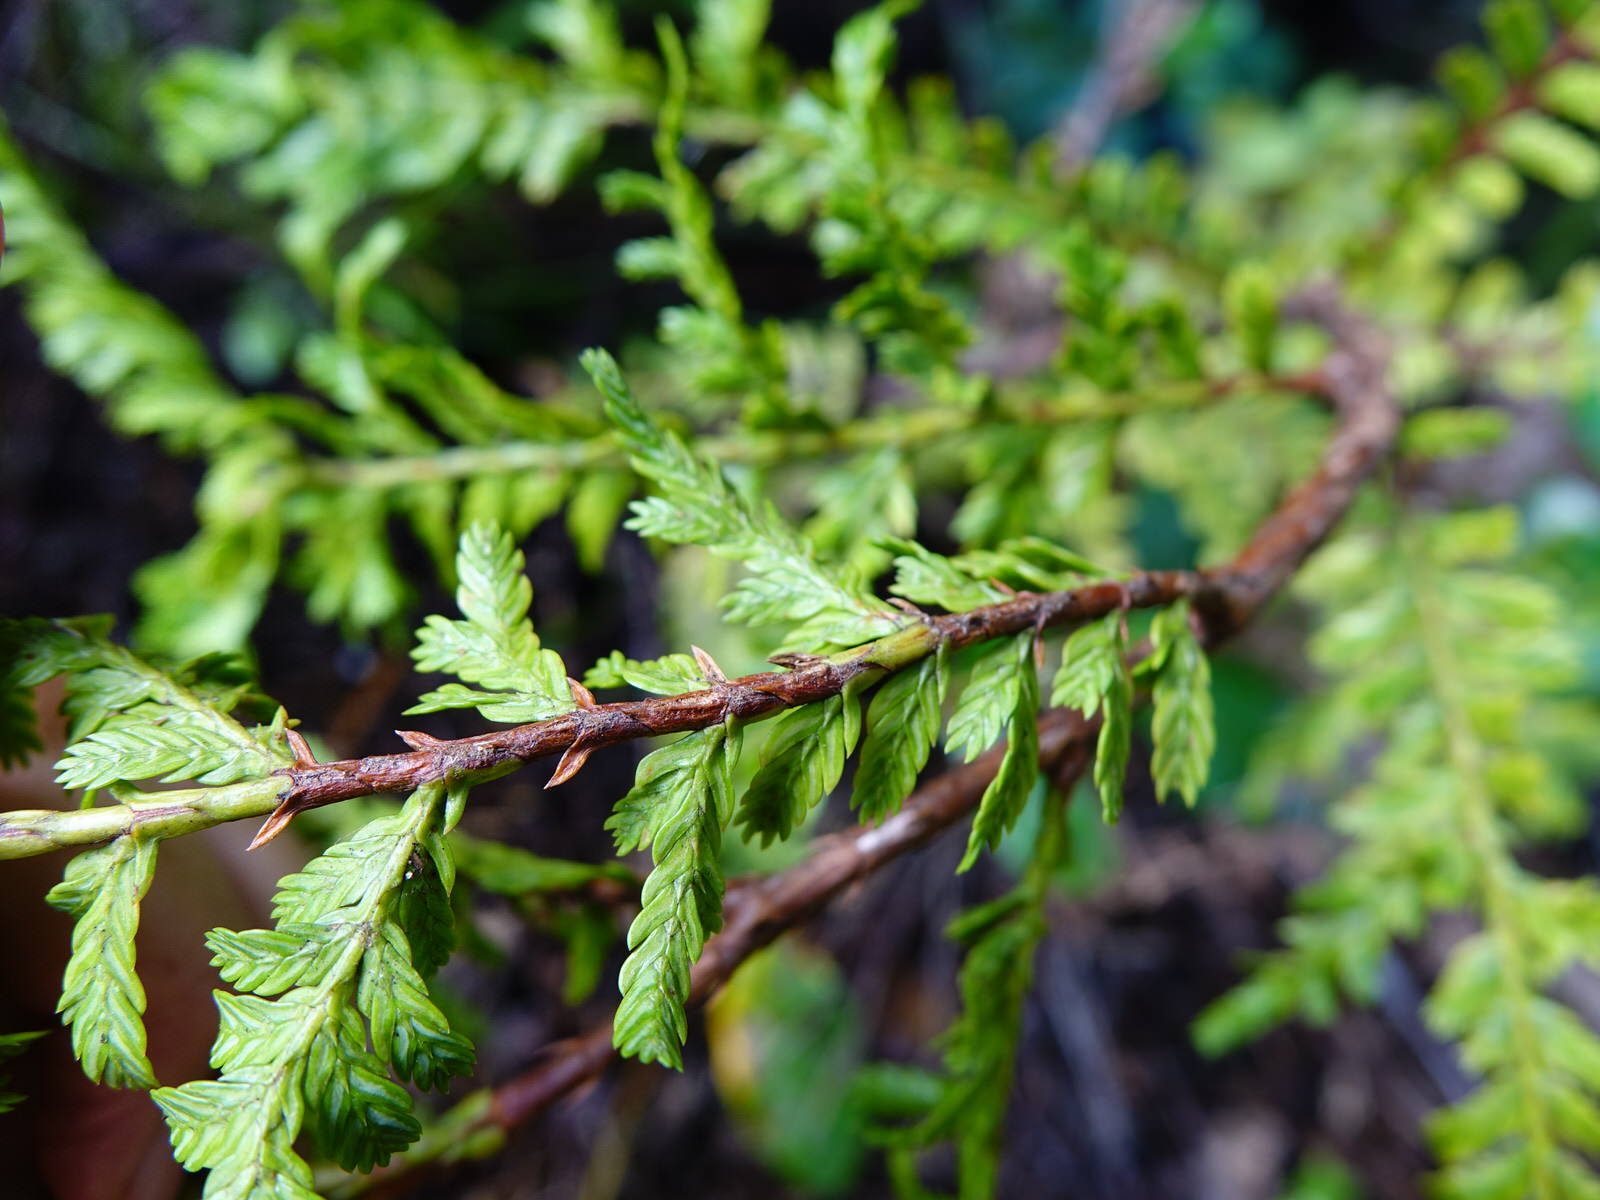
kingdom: Plantae
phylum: Tracheophyta
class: Pinopsida
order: Pinales
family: Cupressaceae
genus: Libocedrus
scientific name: Libocedrus plumosa
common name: New zealand cedar
